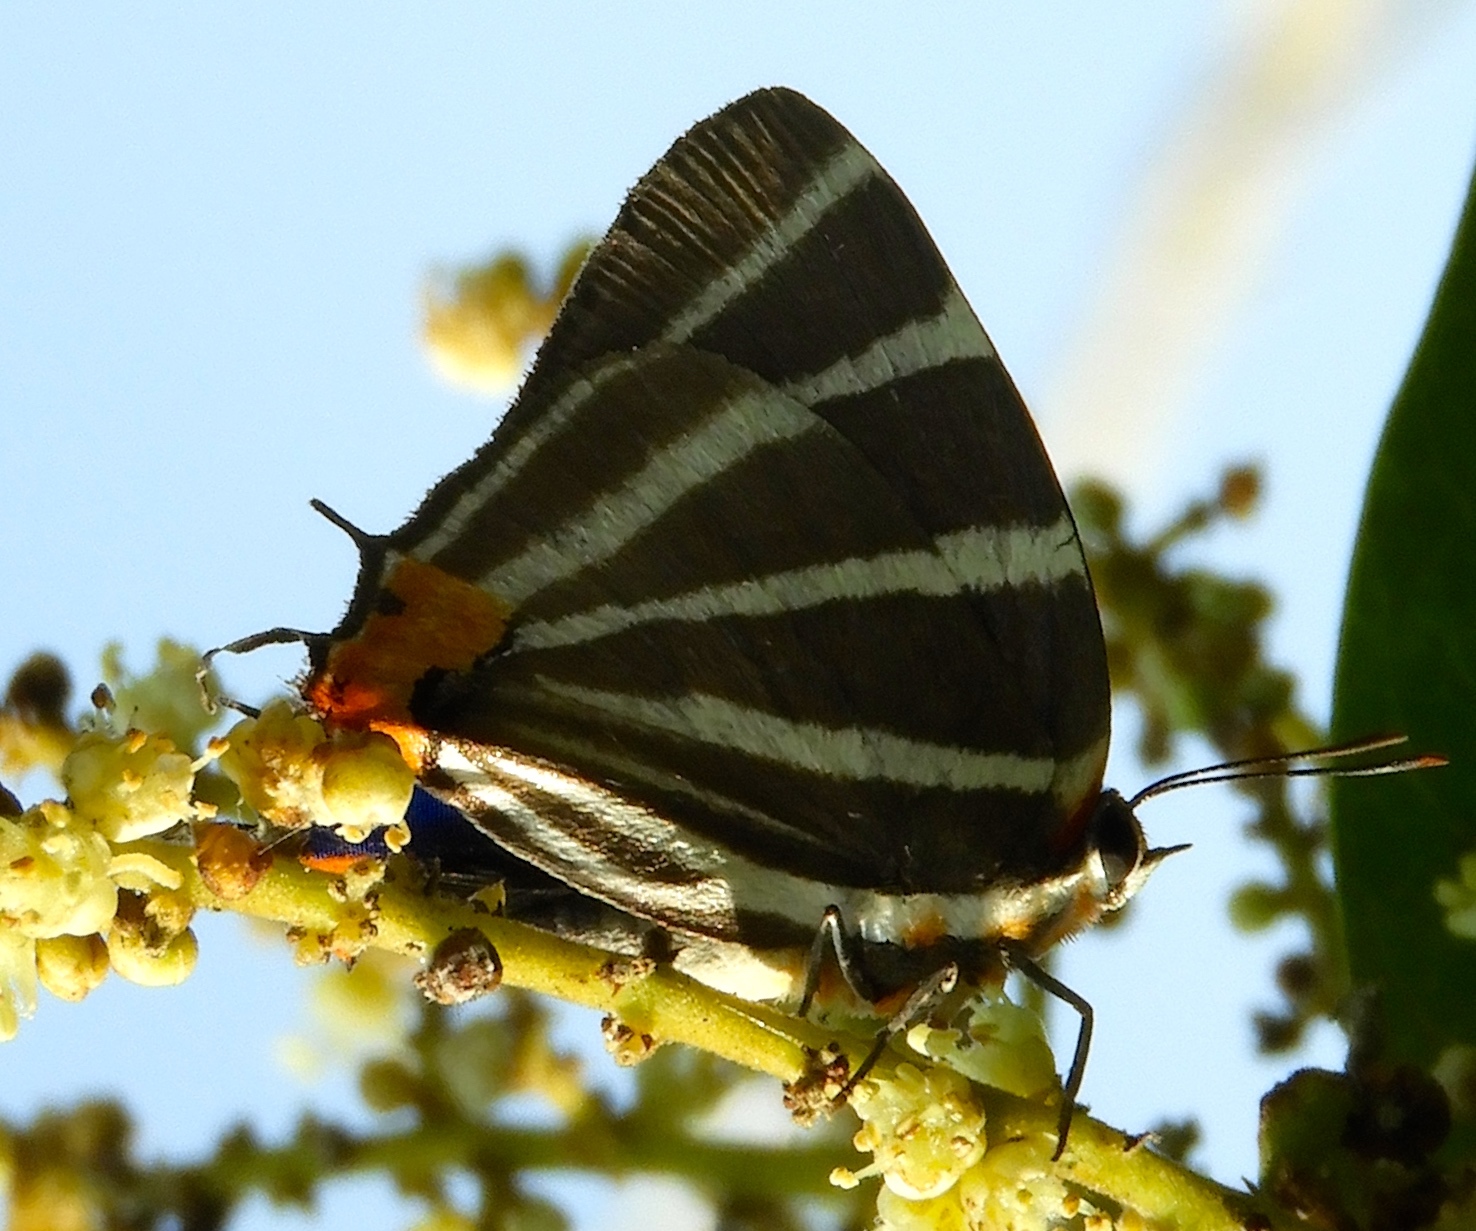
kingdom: Animalia
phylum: Arthropoda
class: Insecta
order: Lepidoptera
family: Lycaenidae
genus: Thecla
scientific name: Thecla bathildis
